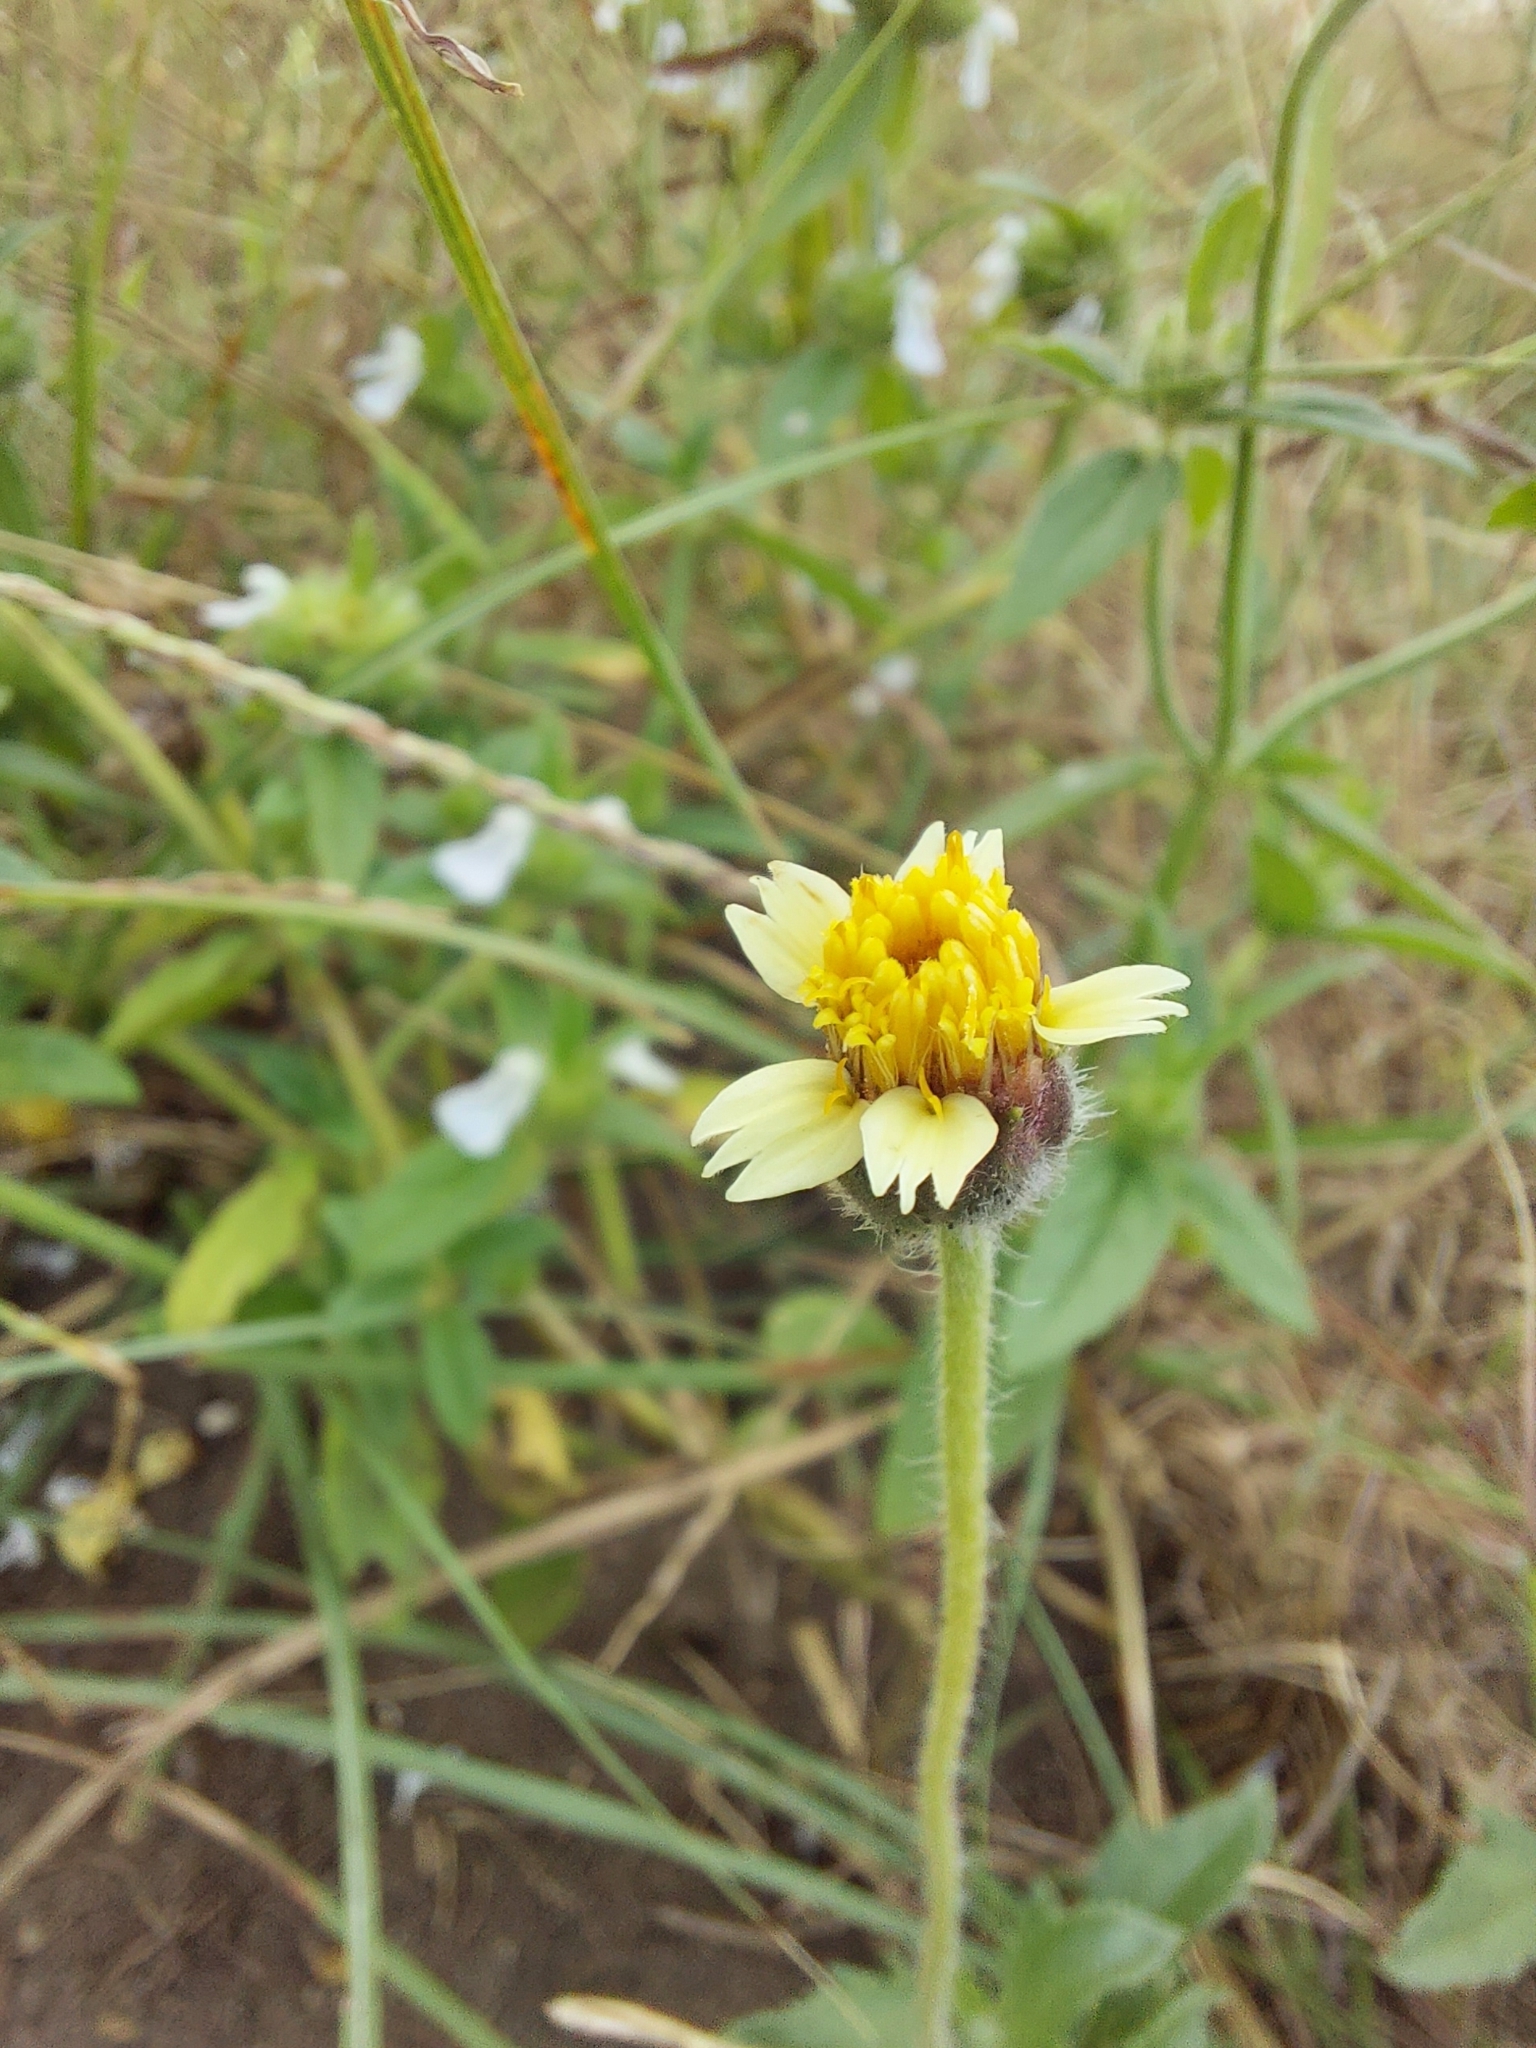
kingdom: Plantae
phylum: Tracheophyta
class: Magnoliopsida
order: Asterales
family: Asteraceae
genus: Tridax
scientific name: Tridax procumbens
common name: Coatbuttons
